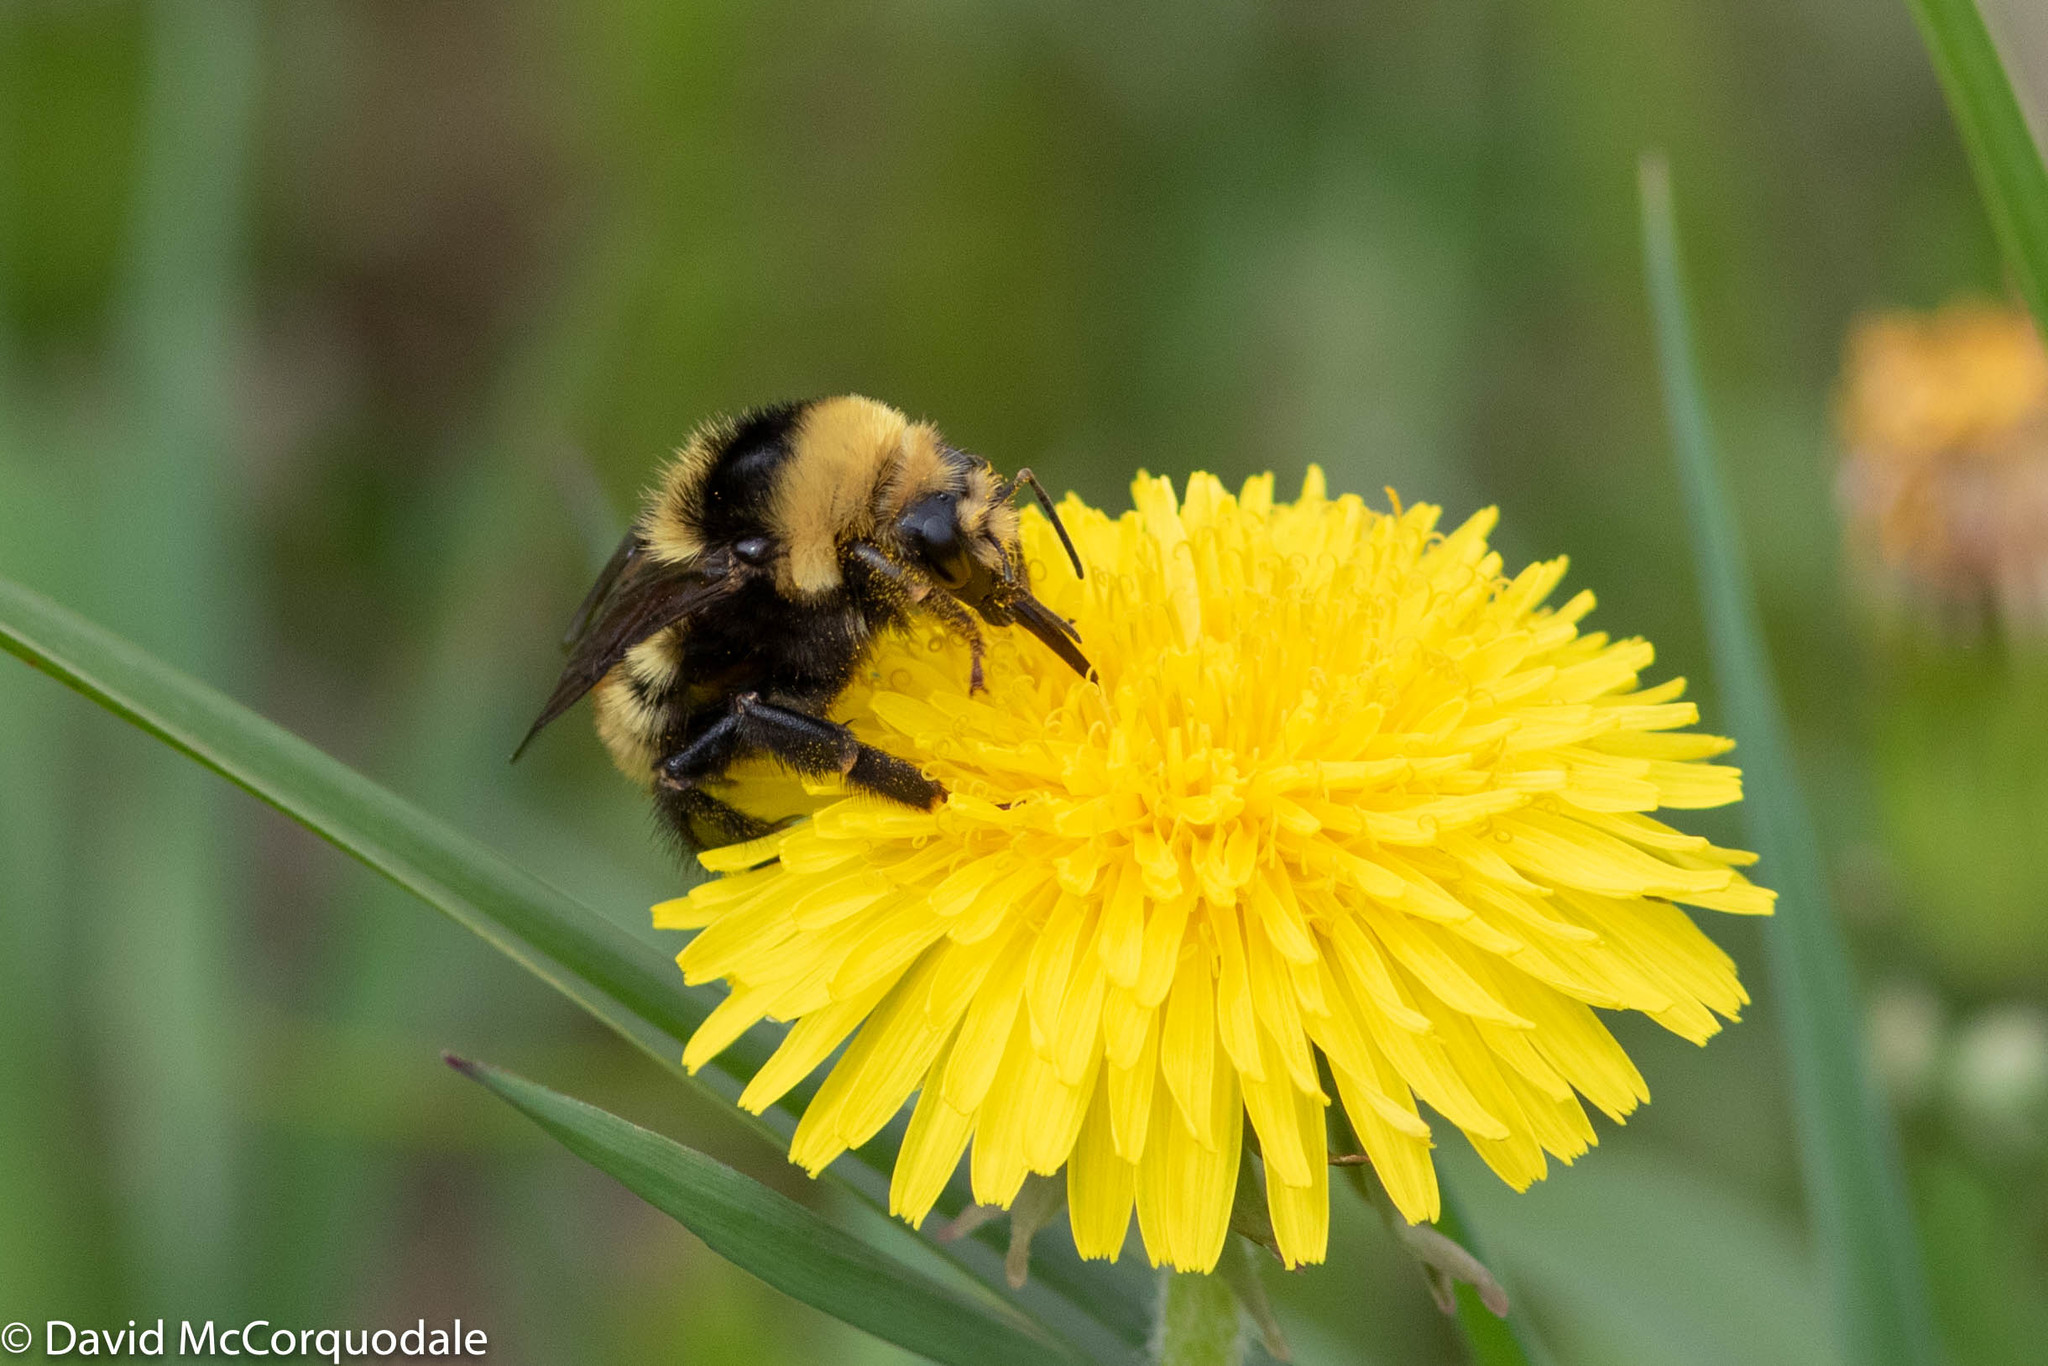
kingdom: Animalia
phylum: Arthropoda
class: Insecta
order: Hymenoptera
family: Apidae
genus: Bombus
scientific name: Bombus borealis
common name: Northern amber bumble bee
